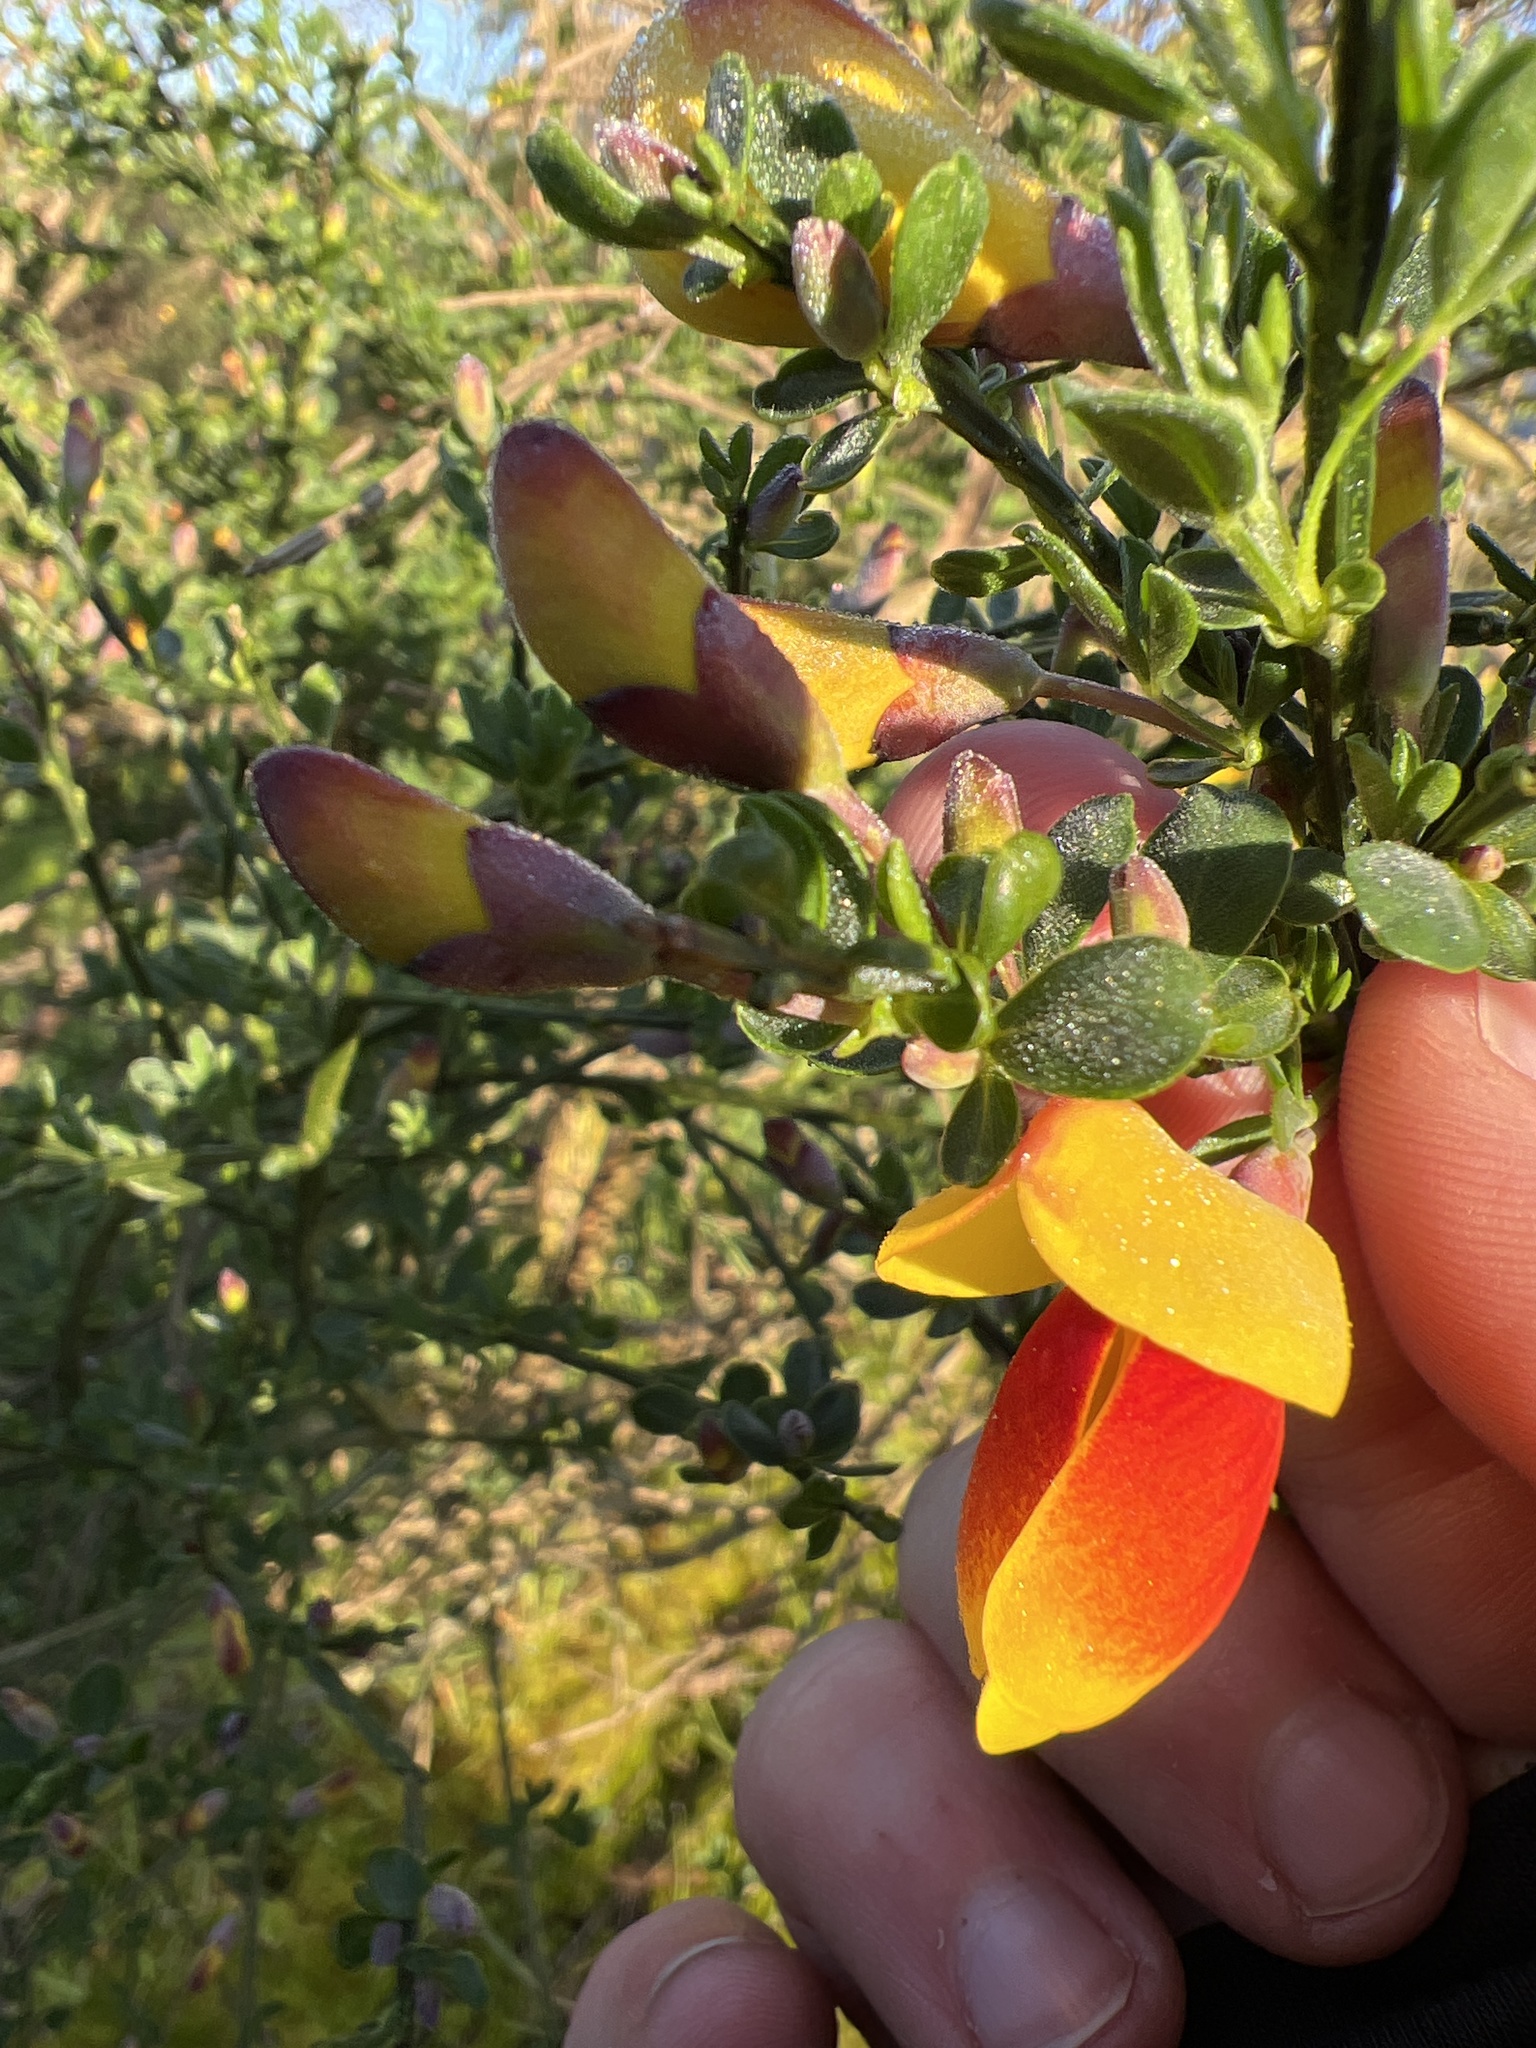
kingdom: Plantae
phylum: Tracheophyta
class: Magnoliopsida
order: Fabales
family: Fabaceae
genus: Cytisus
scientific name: Cytisus scoparius
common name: Scotch broom
